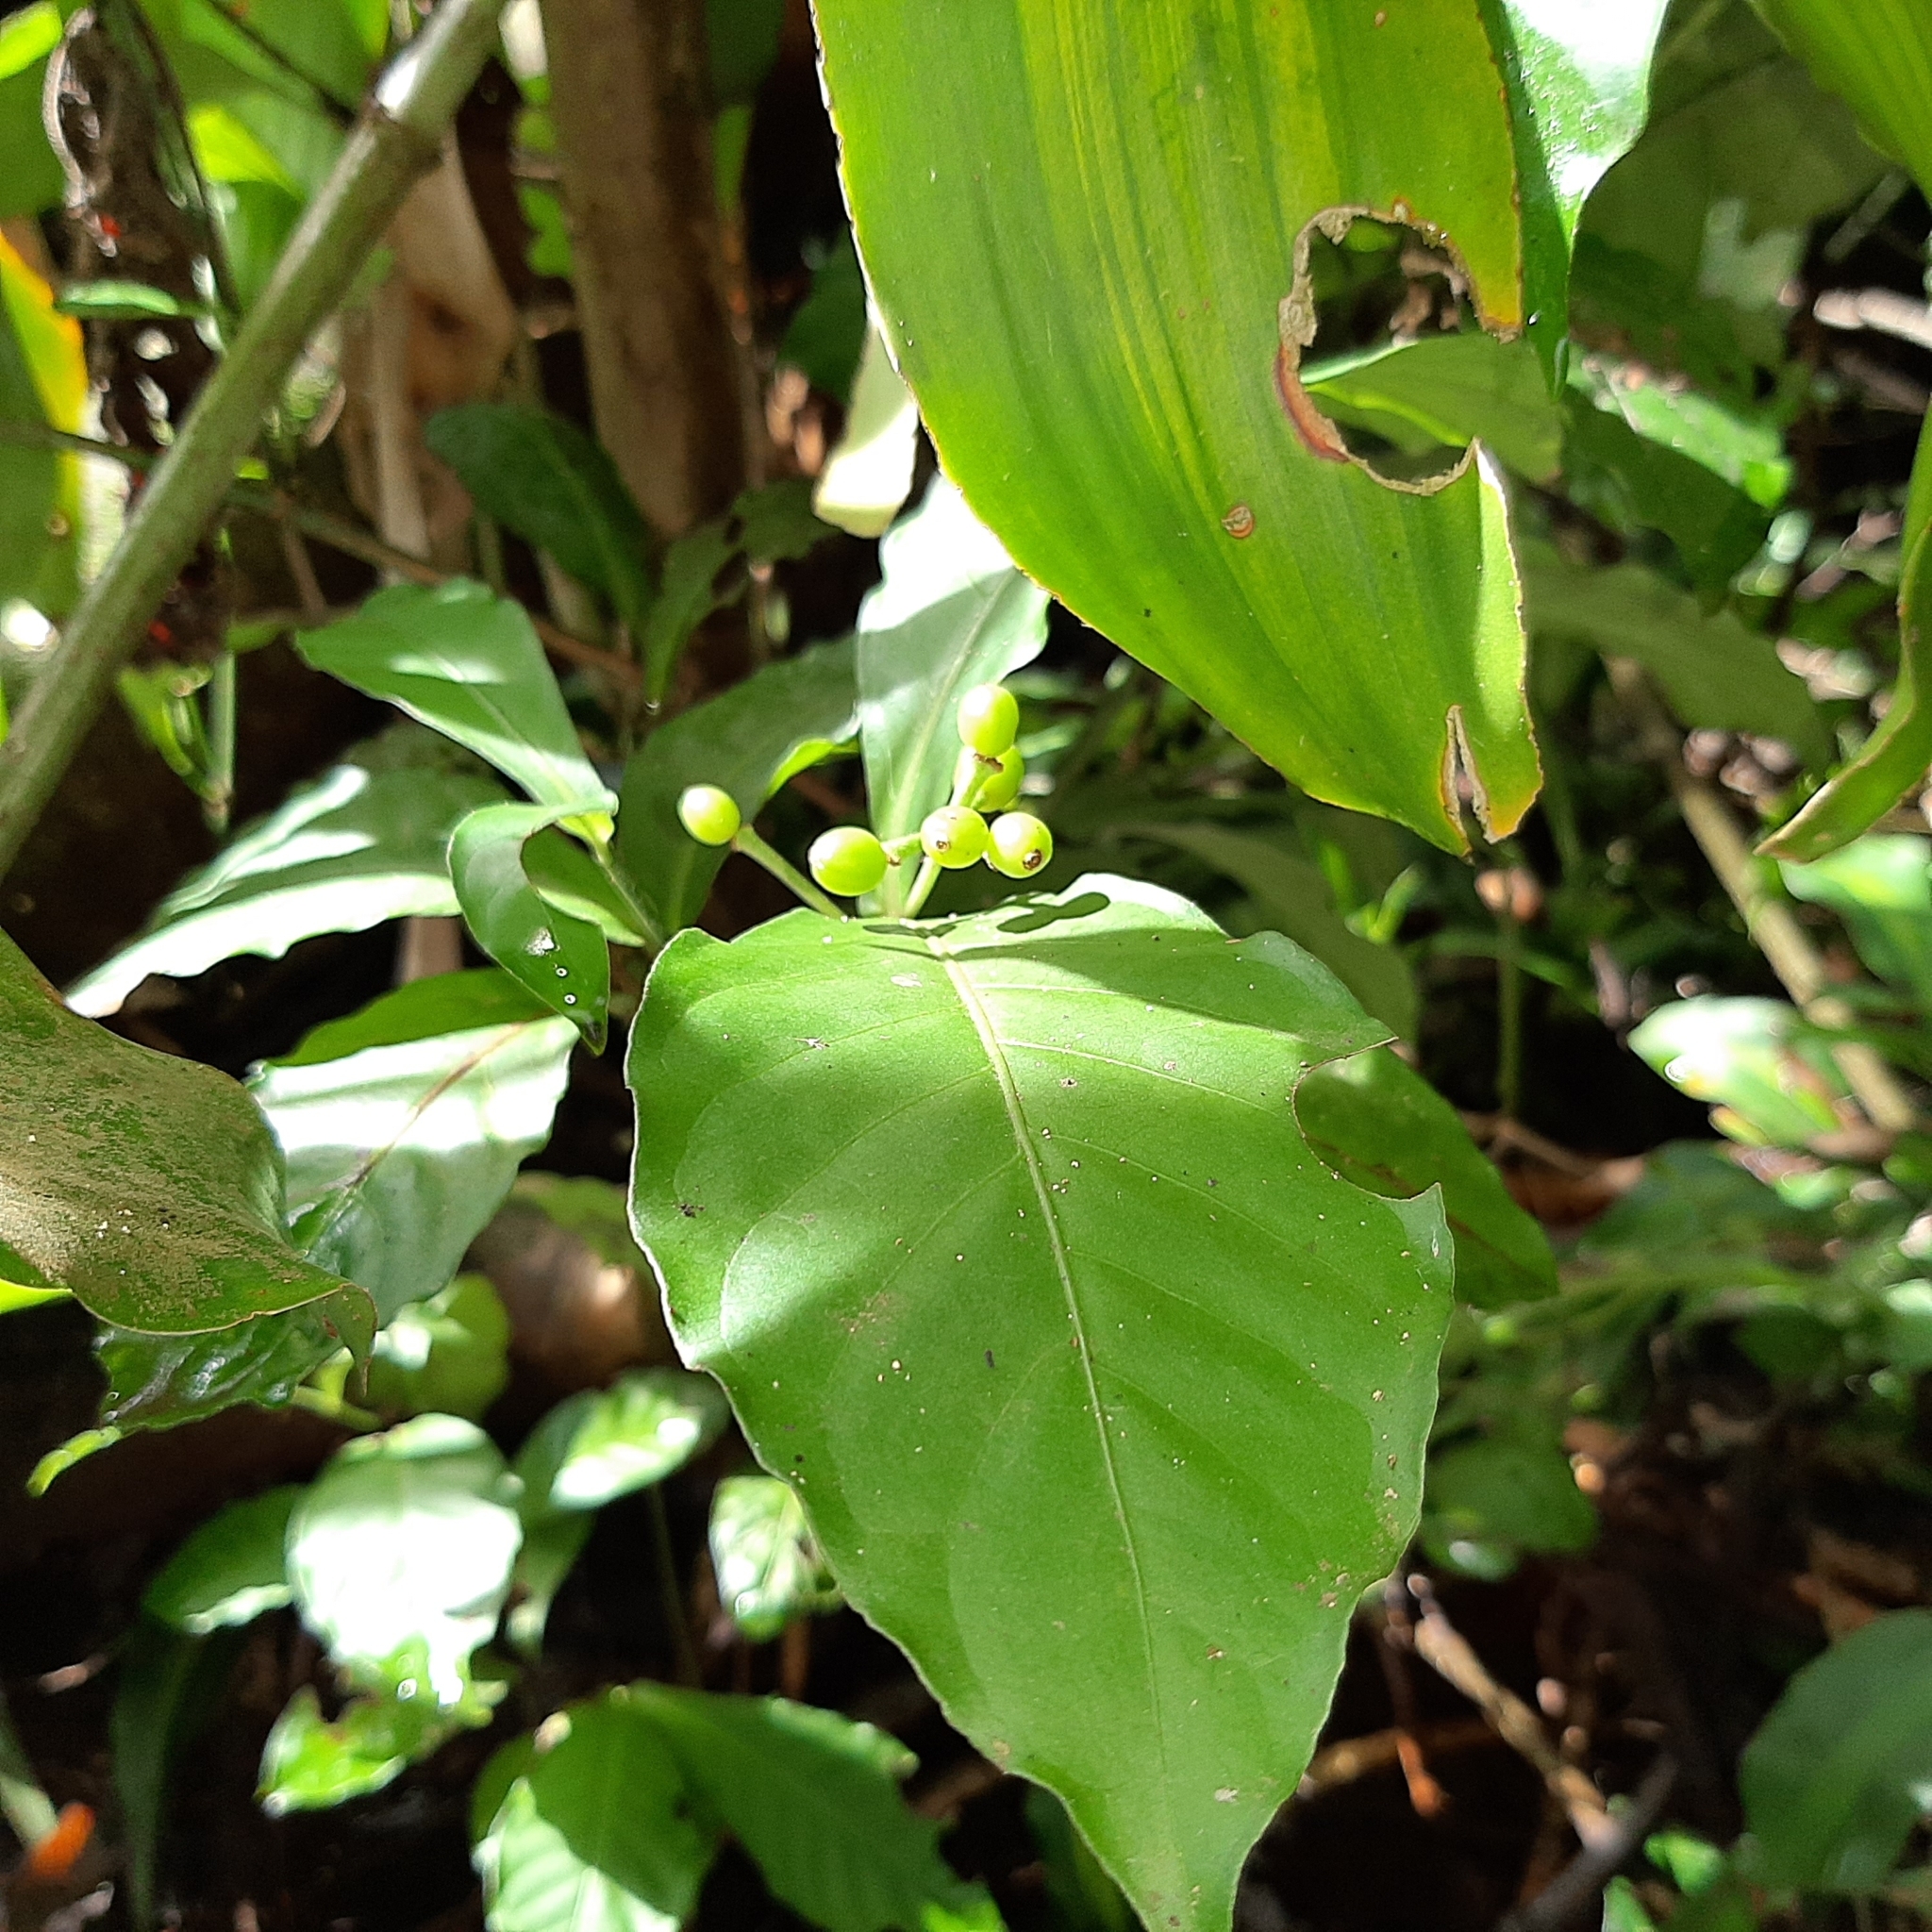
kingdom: Plantae
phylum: Tracheophyta
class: Magnoliopsida
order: Gentianales
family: Rubiaceae
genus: Psychotria
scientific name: Psychotria subsessilis
